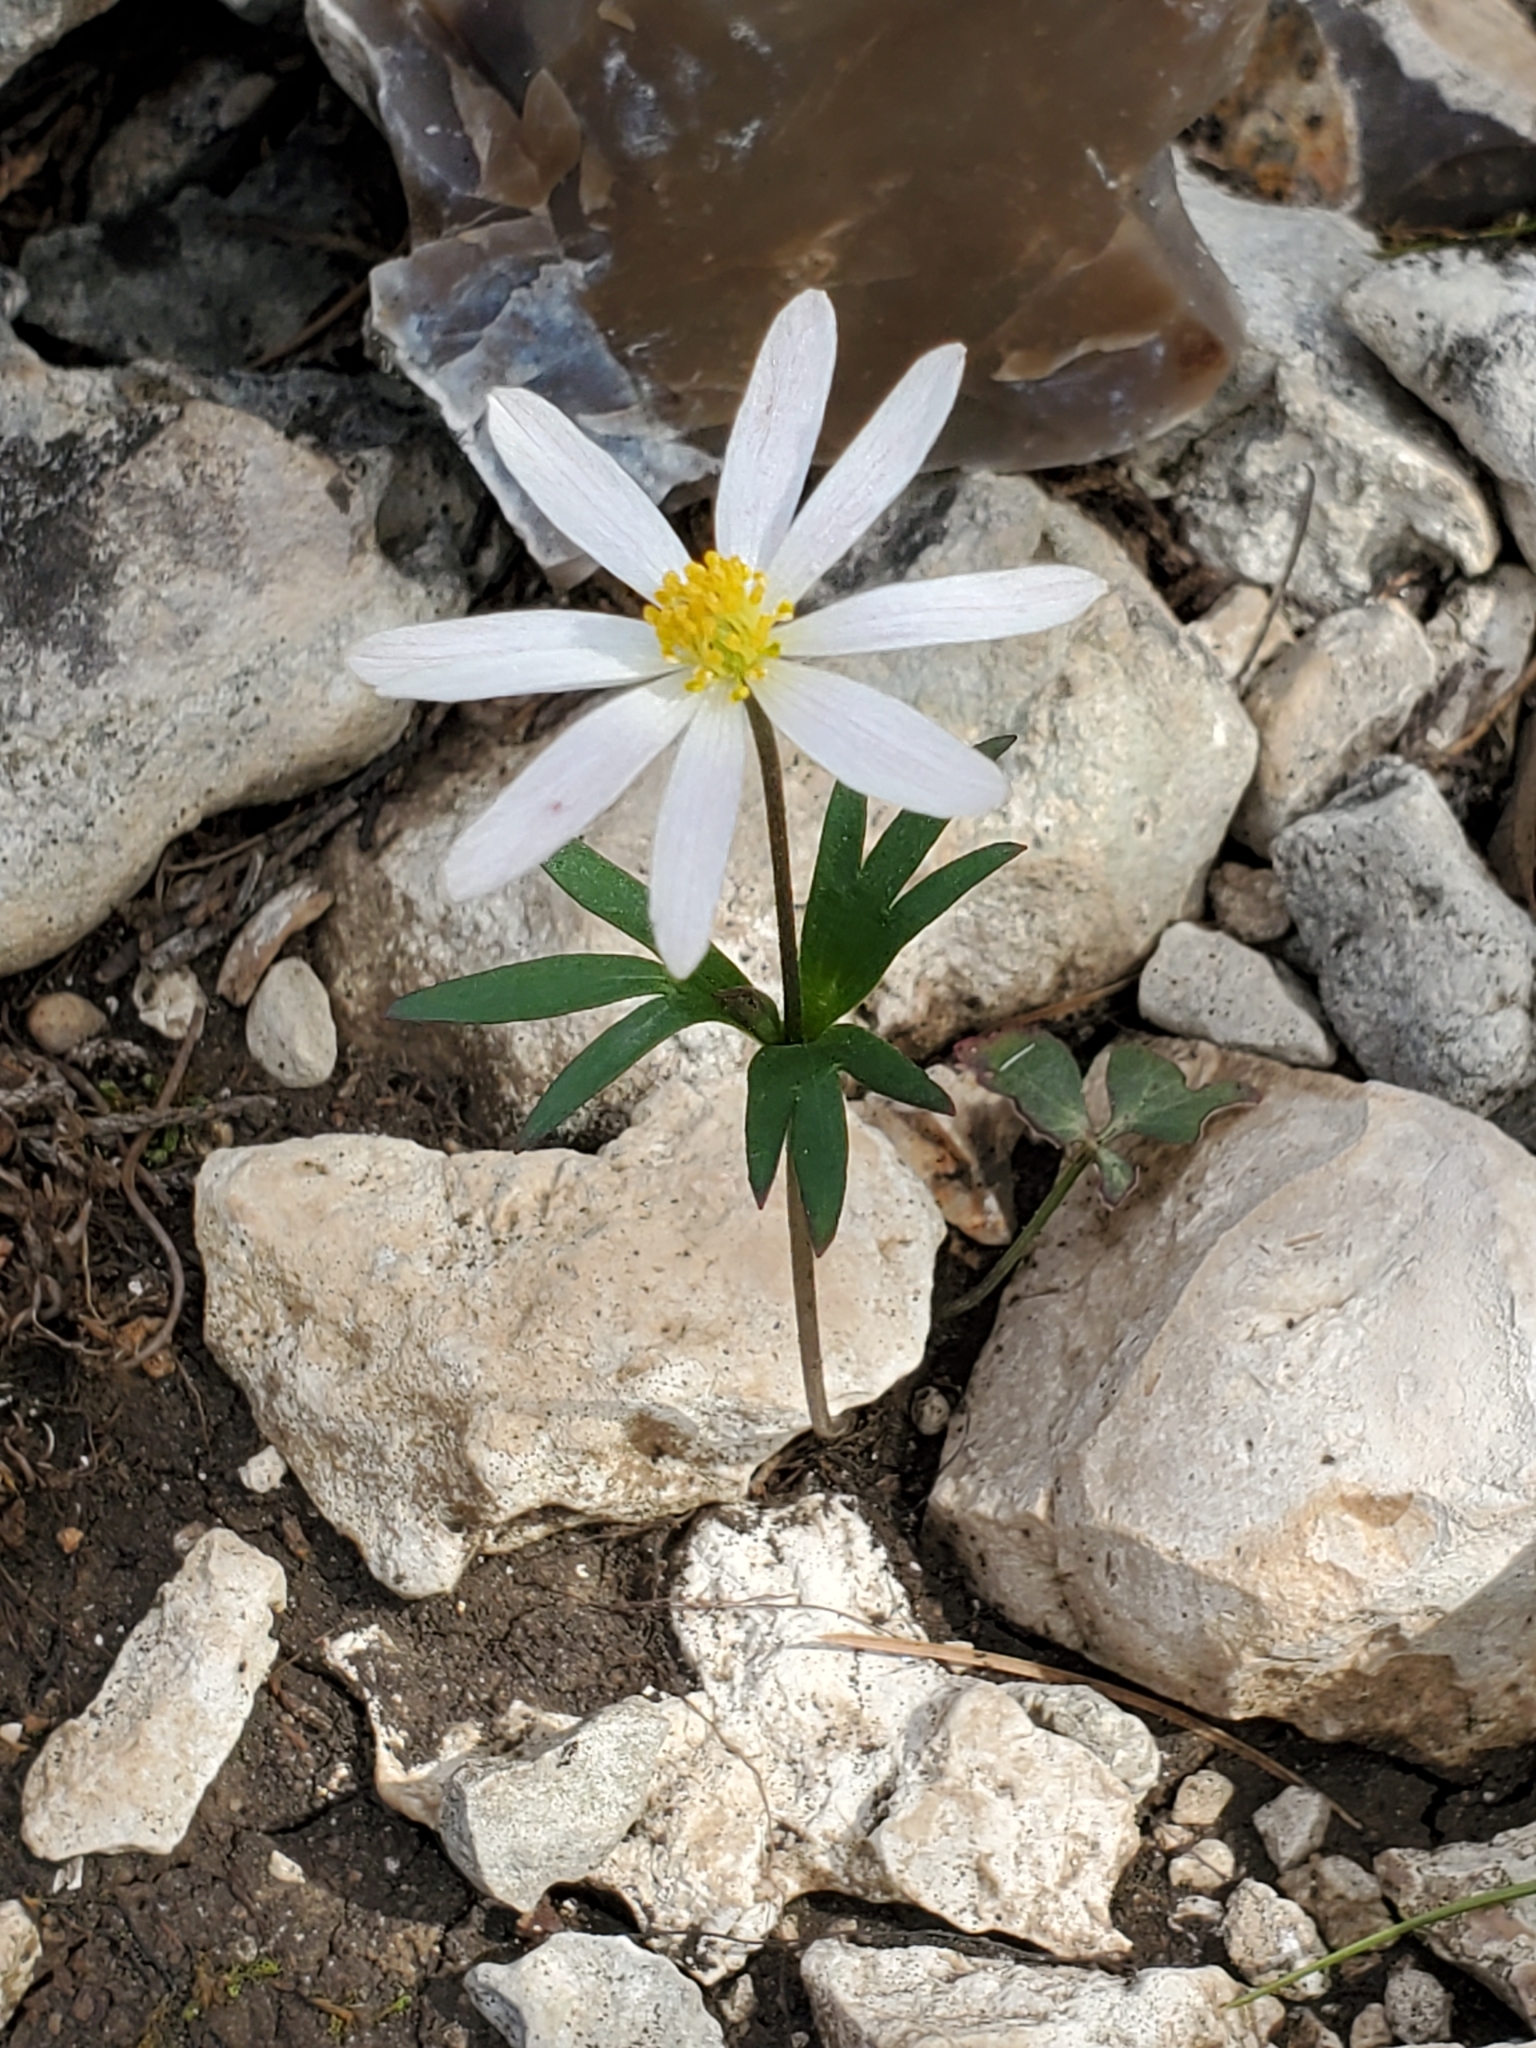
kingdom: Plantae
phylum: Tracheophyta
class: Magnoliopsida
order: Ranunculales
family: Ranunculaceae
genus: Anemone
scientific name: Anemone edwardsiana
